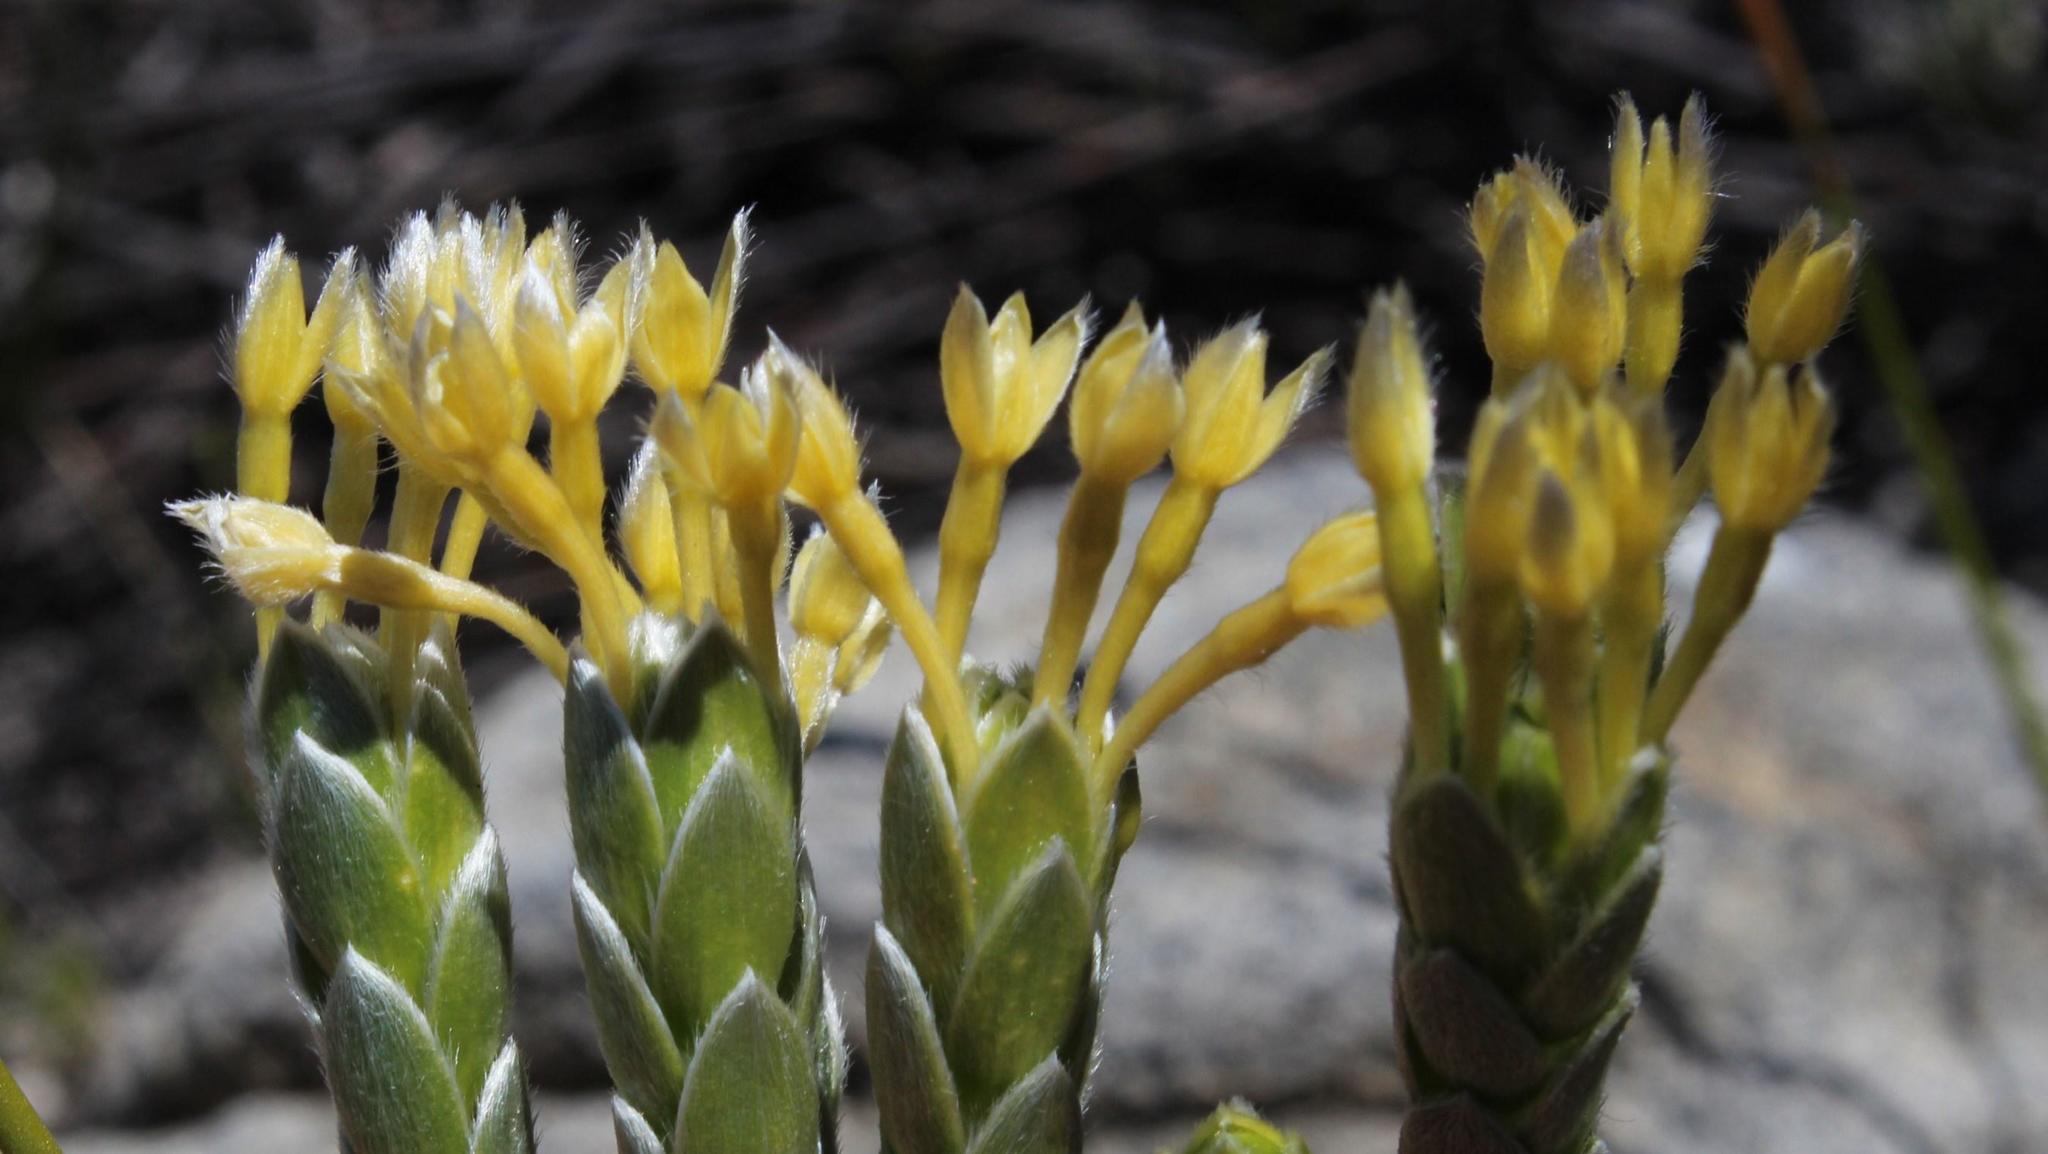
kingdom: Plantae
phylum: Tracheophyta
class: Magnoliopsida
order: Malvales
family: Thymelaeaceae
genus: Gnidia
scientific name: Gnidia tenella
